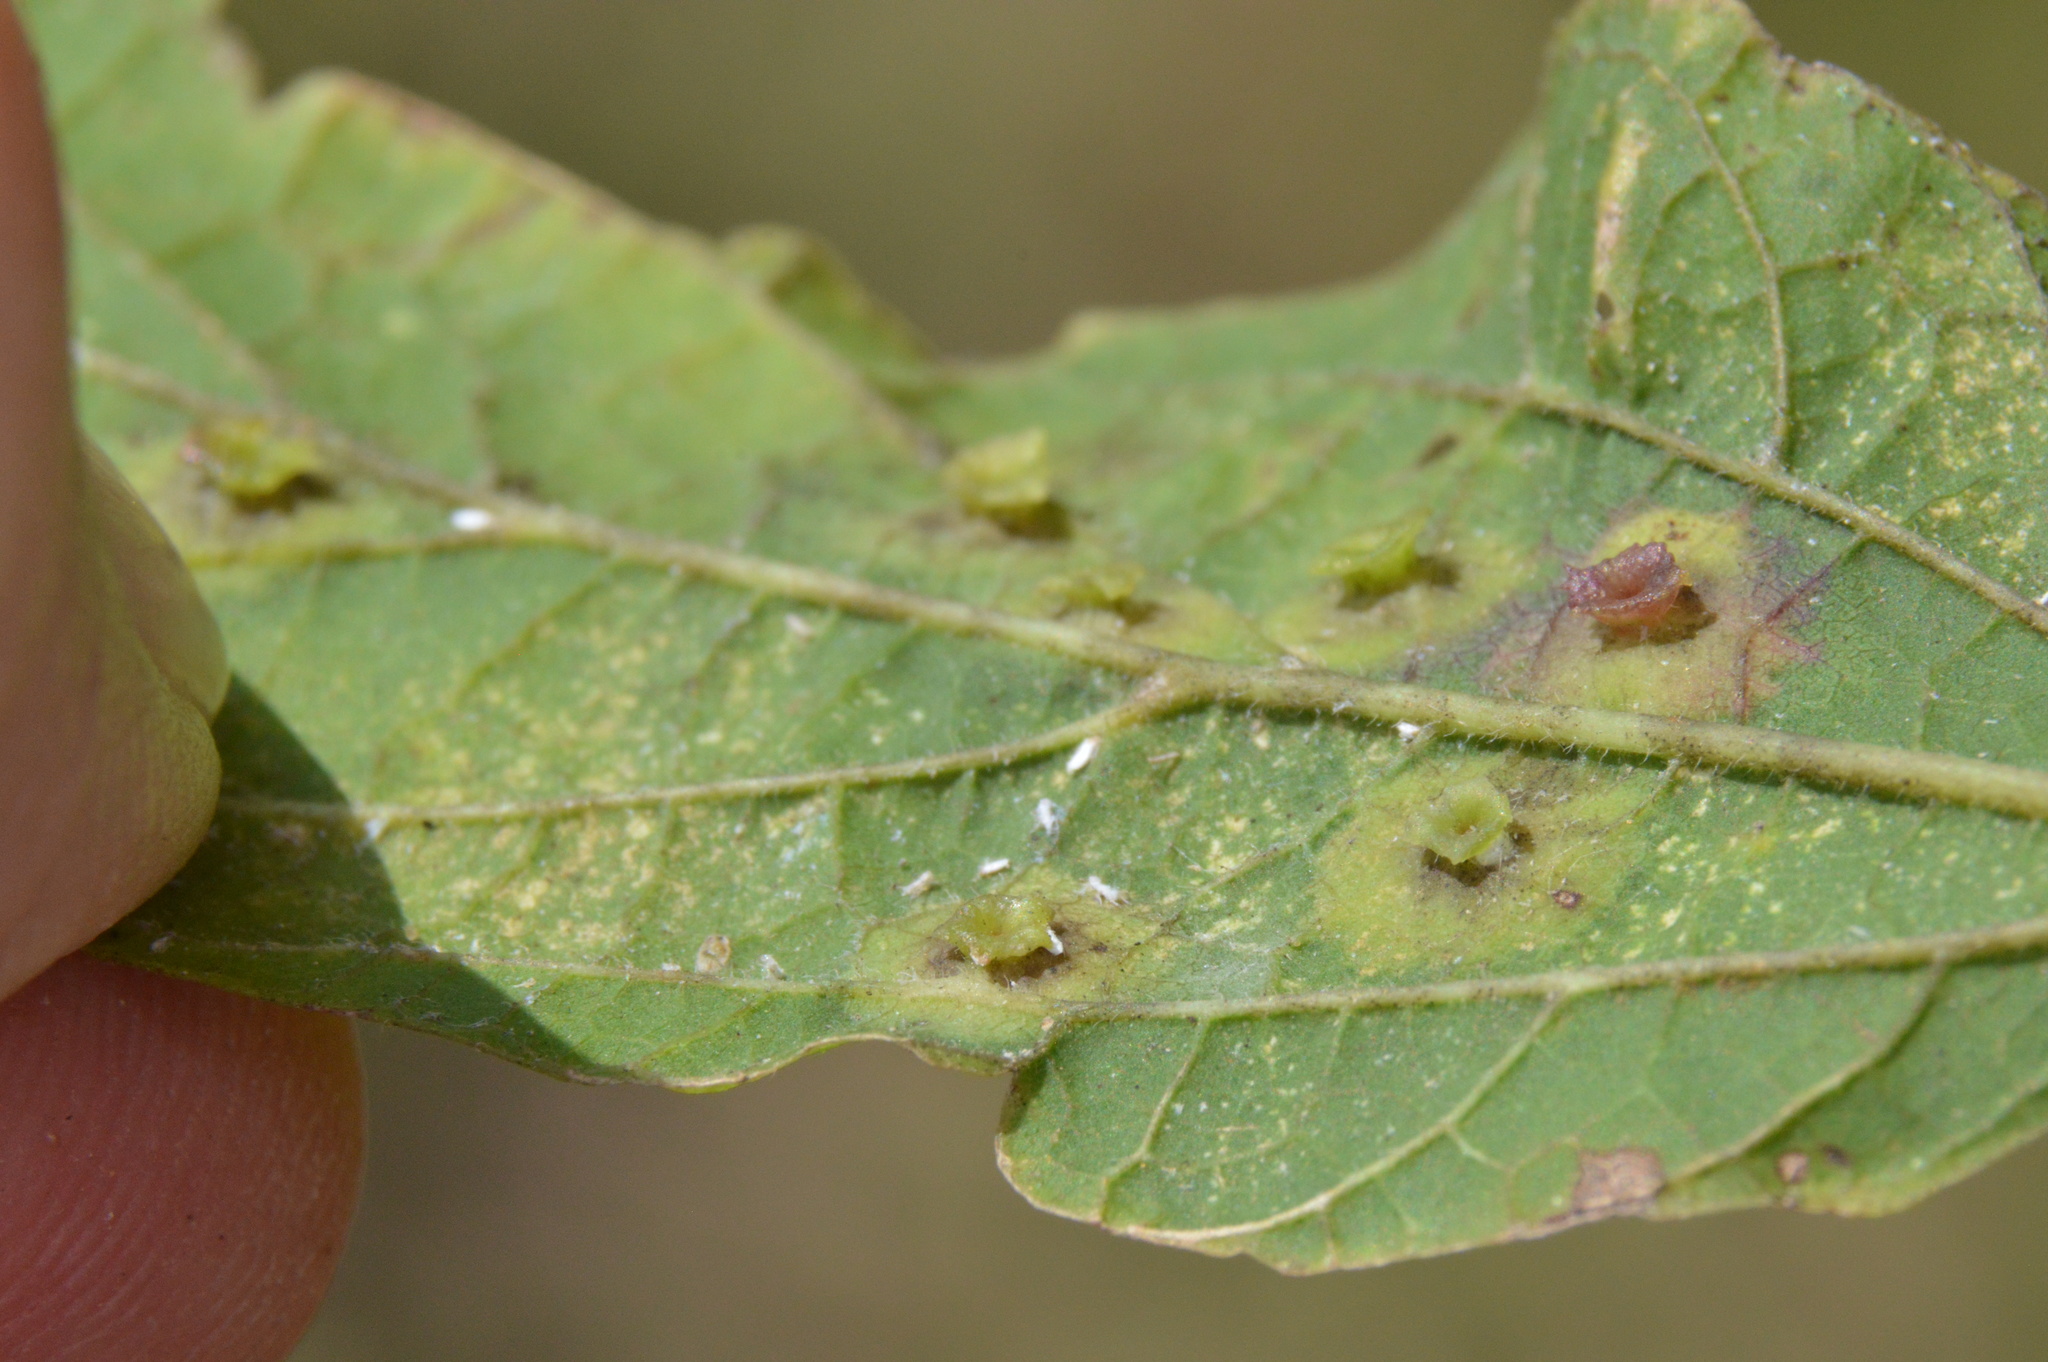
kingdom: Animalia
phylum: Arthropoda
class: Insecta
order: Hemiptera
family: Aphalaridae
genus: Pachypsylla
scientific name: Pachypsylla celtidisasterisca
